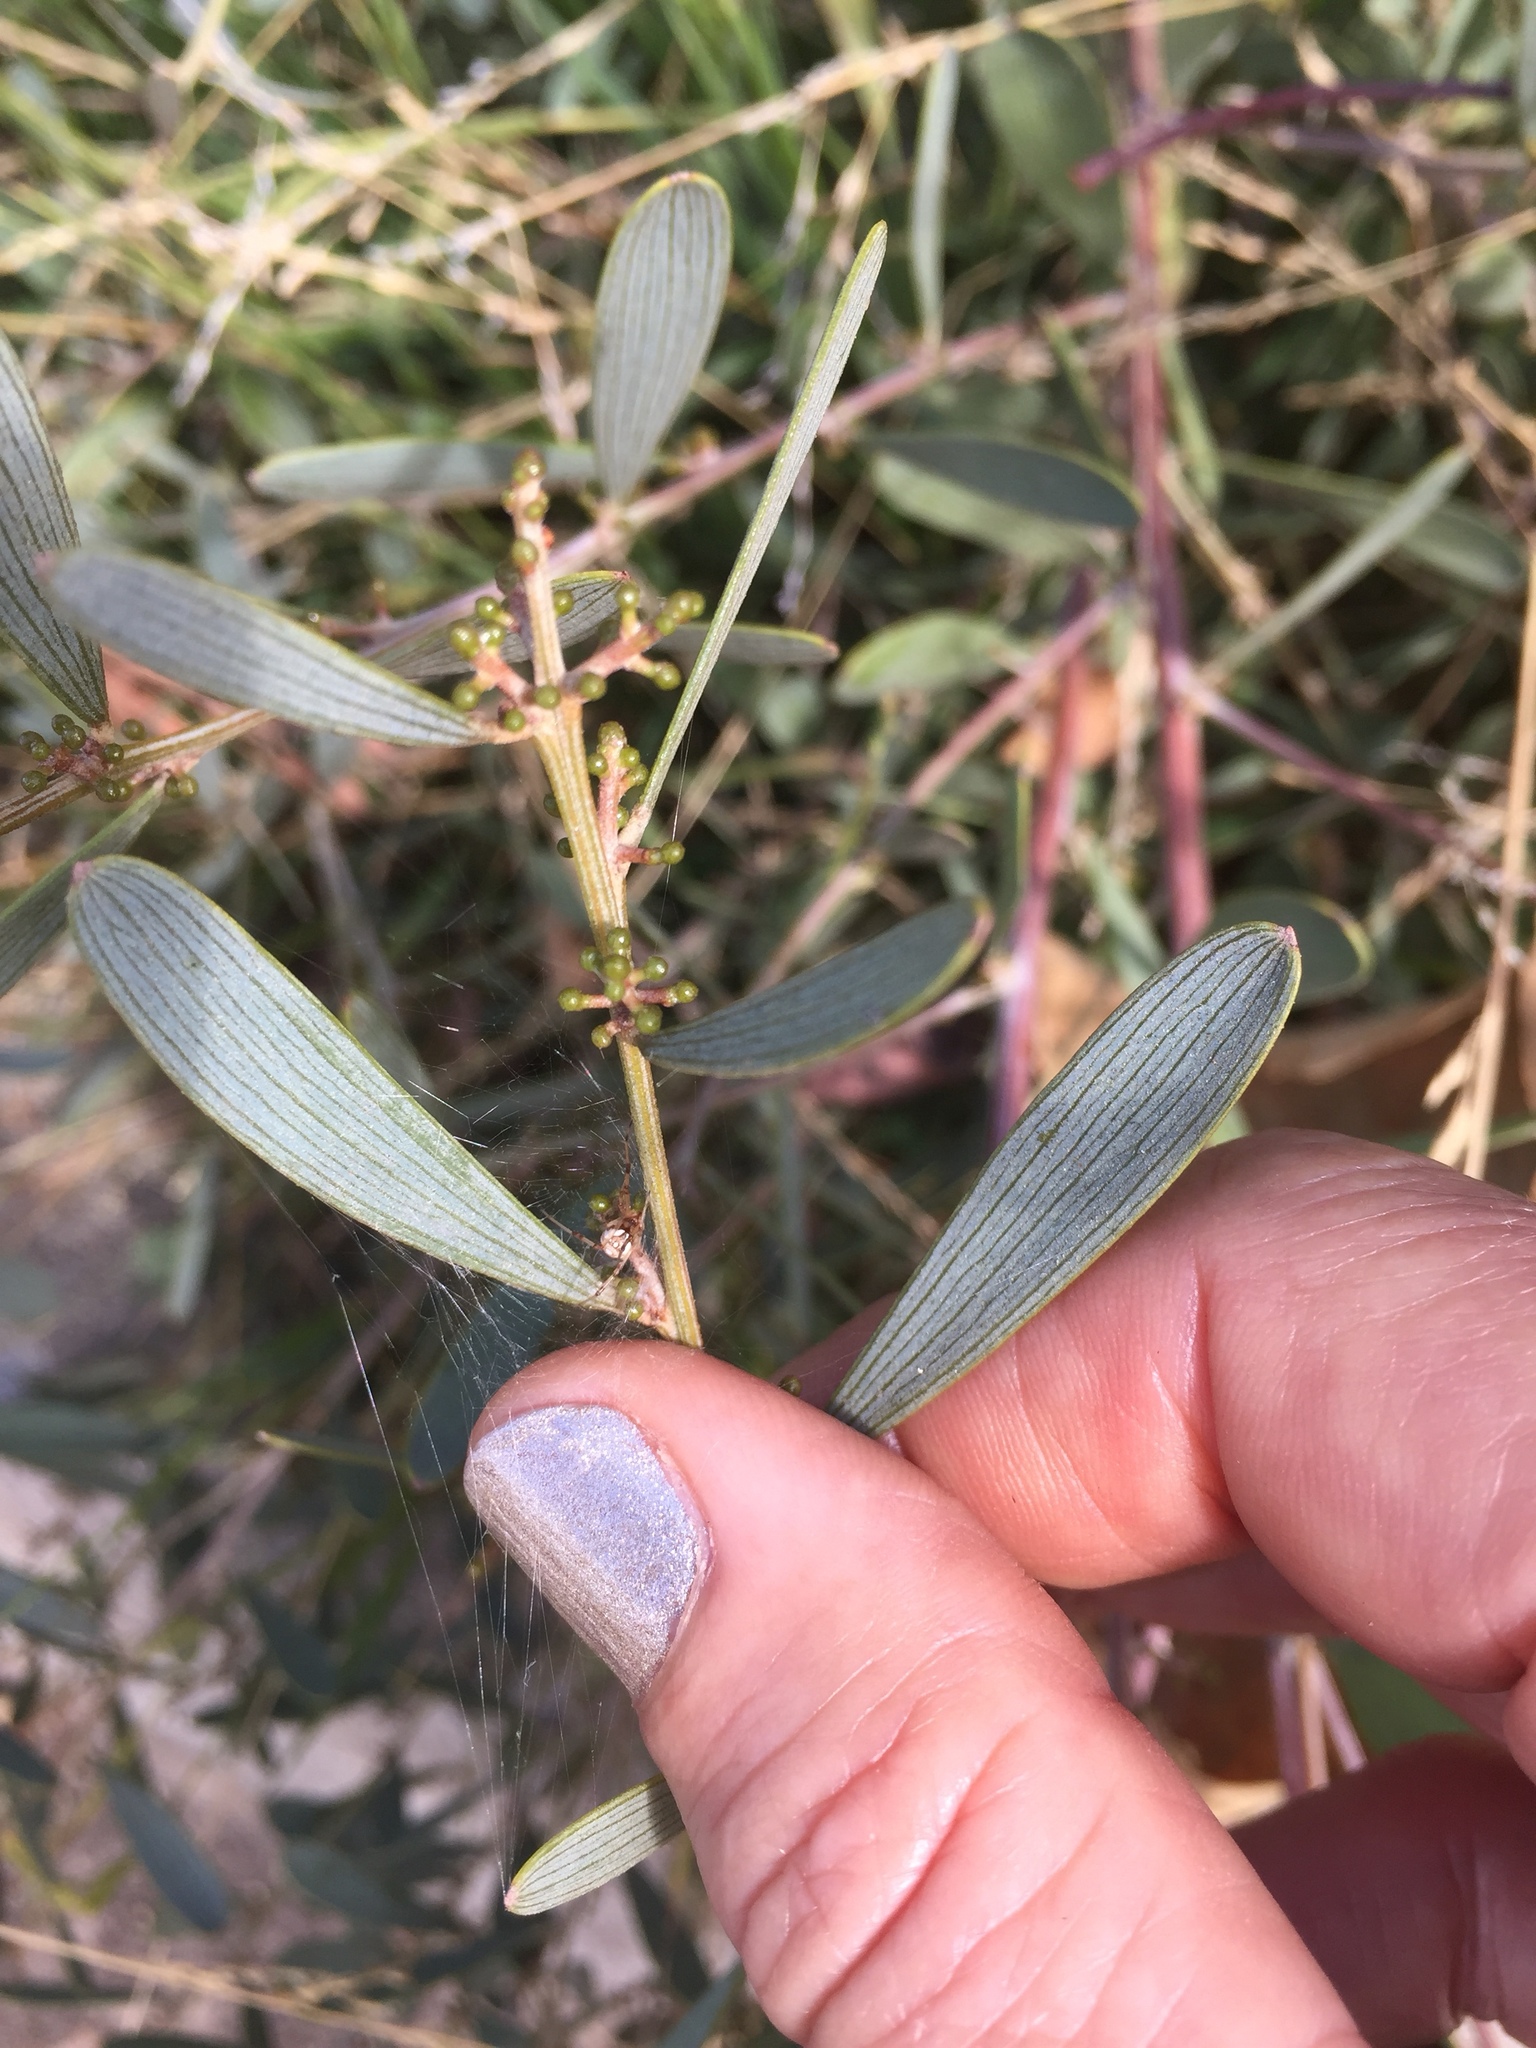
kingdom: Plantae
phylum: Tracheophyta
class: Magnoliopsida
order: Fabales
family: Fabaceae
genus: Acacia
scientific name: Acacia redolens
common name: Bank catclaw
